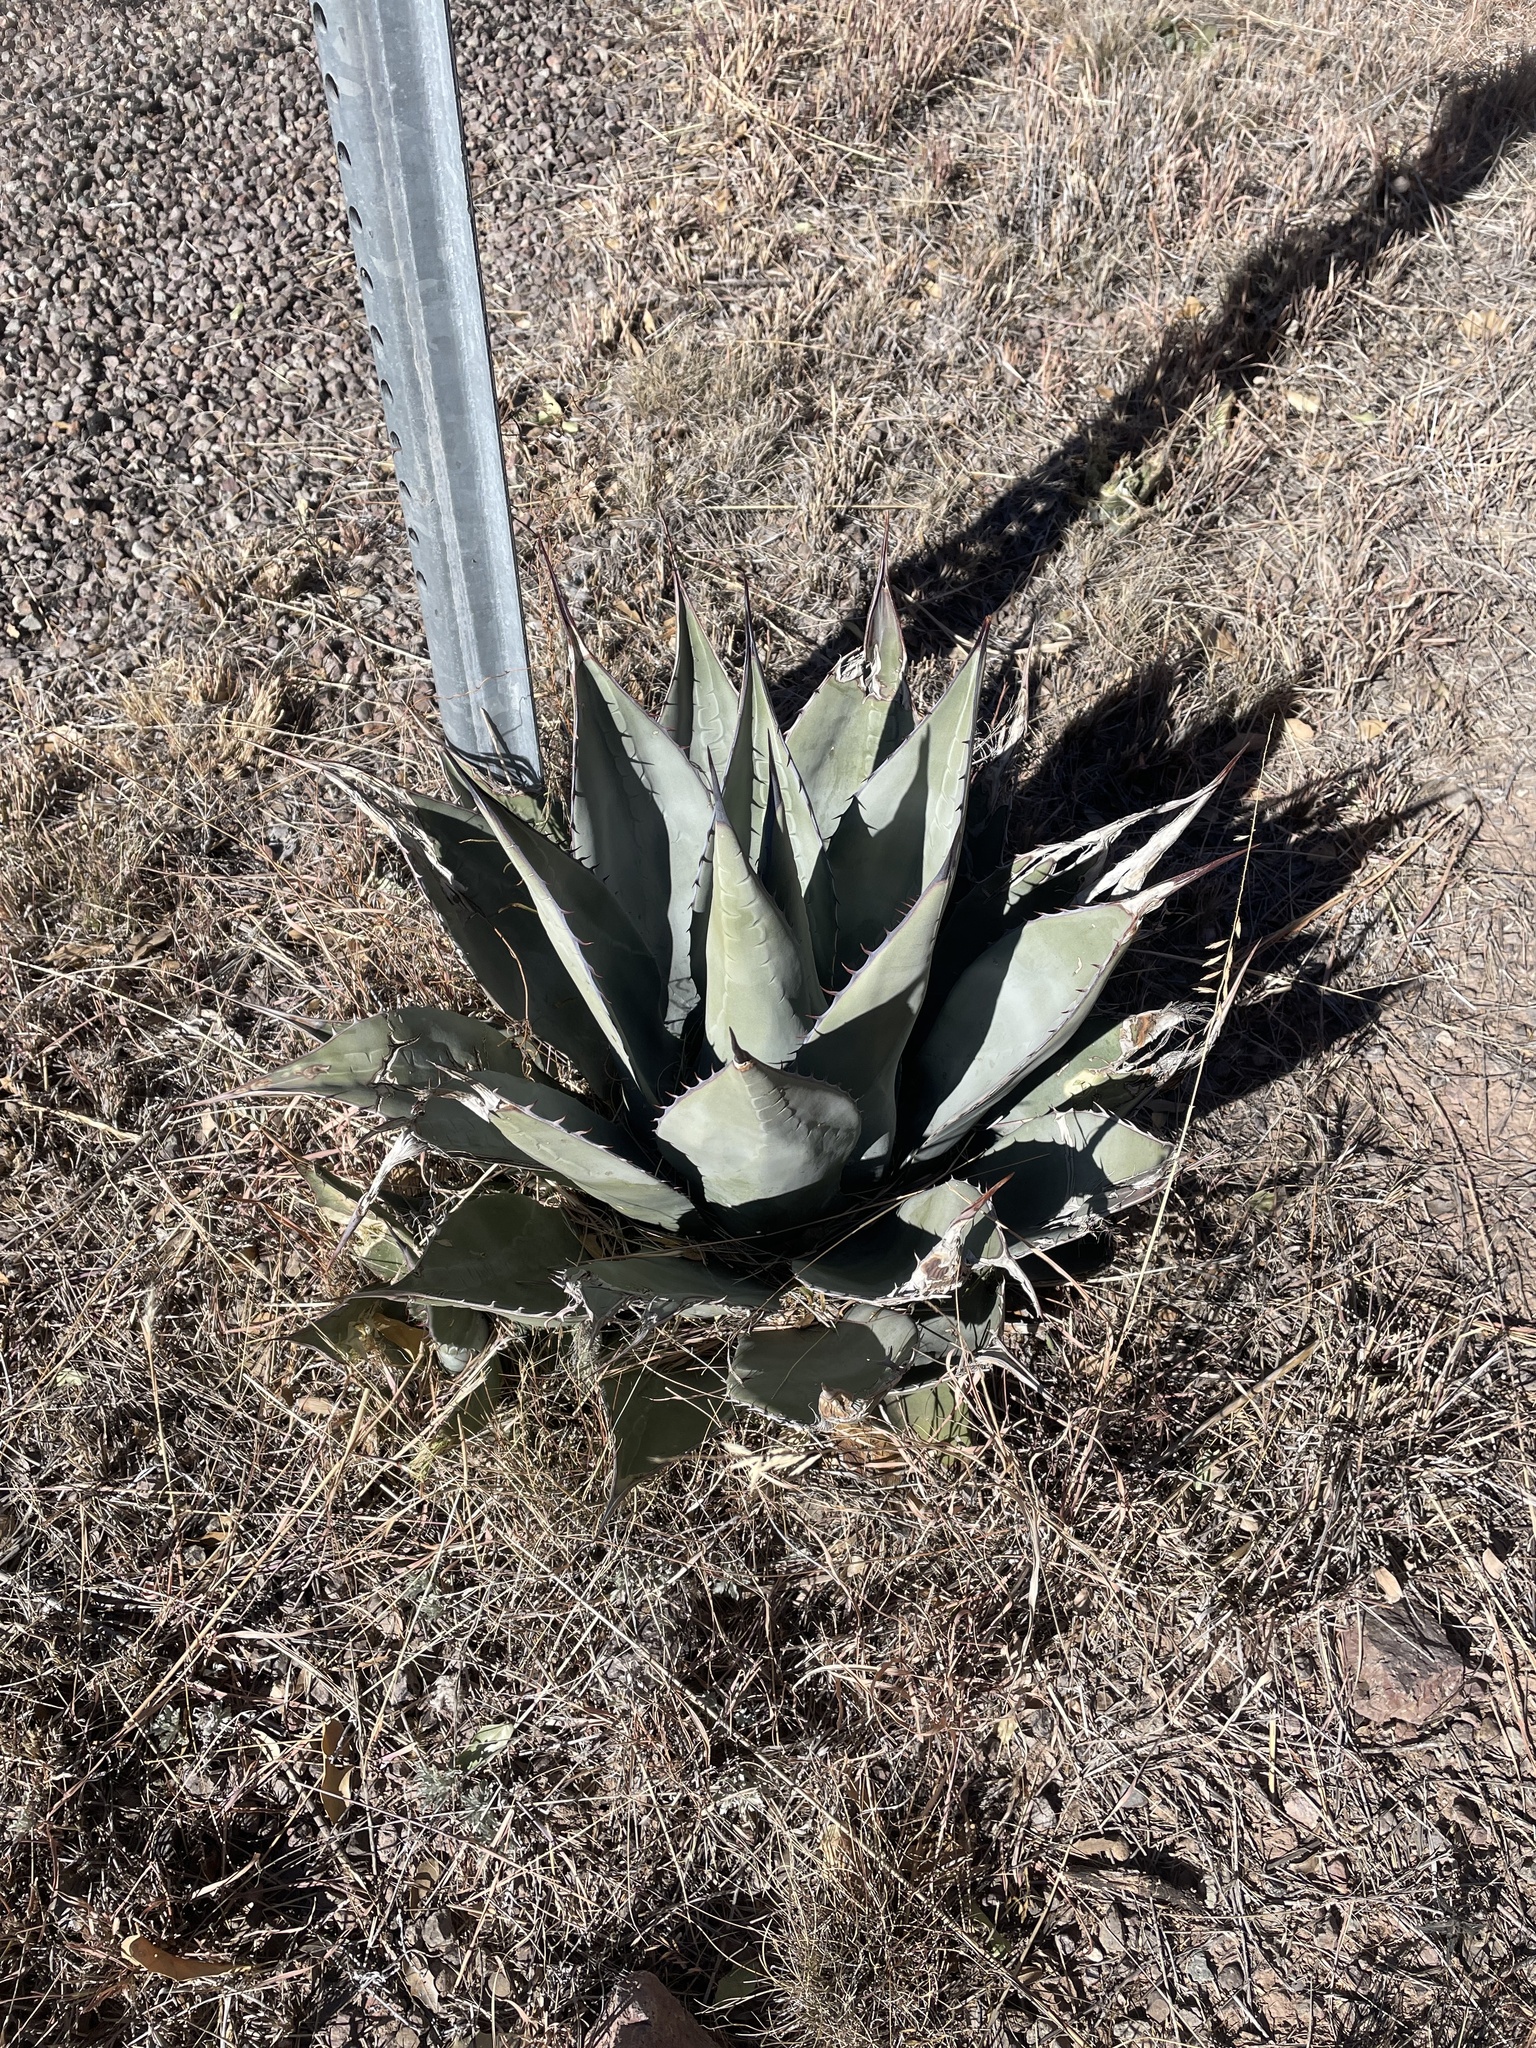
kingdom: Plantae
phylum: Tracheophyta
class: Liliopsida
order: Asparagales
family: Asparagaceae
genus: Agave
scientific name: Agave havardiana
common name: Havard agave
